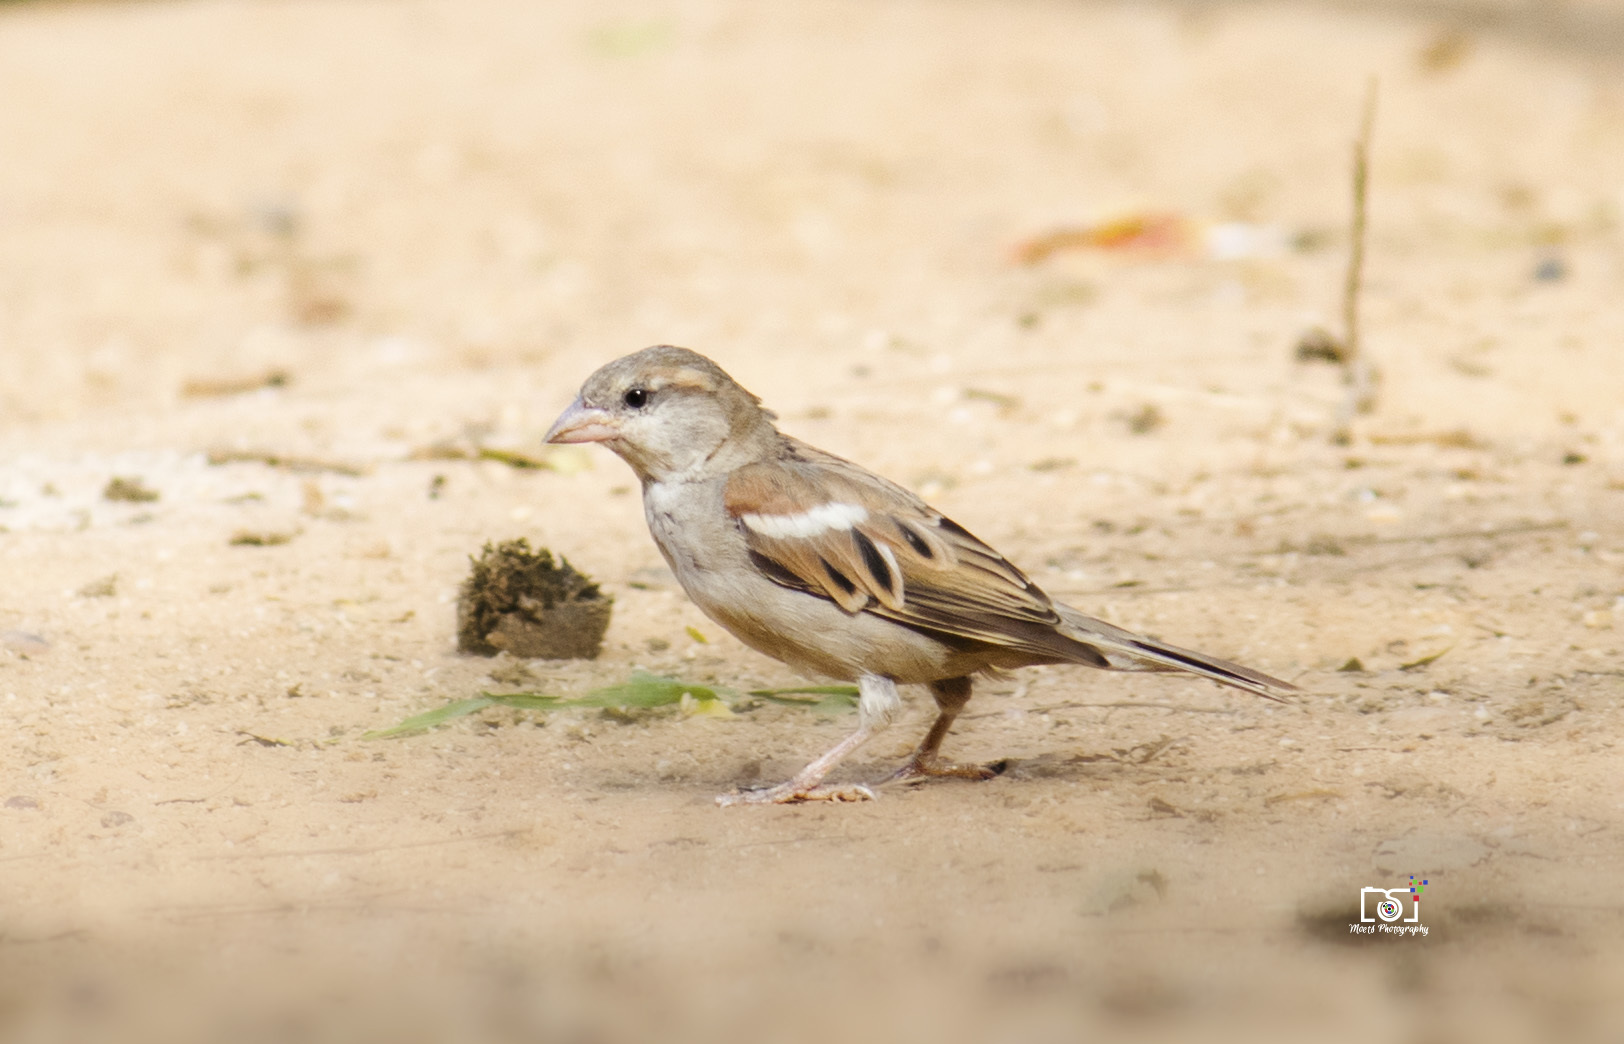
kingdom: Animalia
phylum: Chordata
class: Aves
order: Passeriformes
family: Passeridae
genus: Passer
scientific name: Passer domesticus
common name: House sparrow
